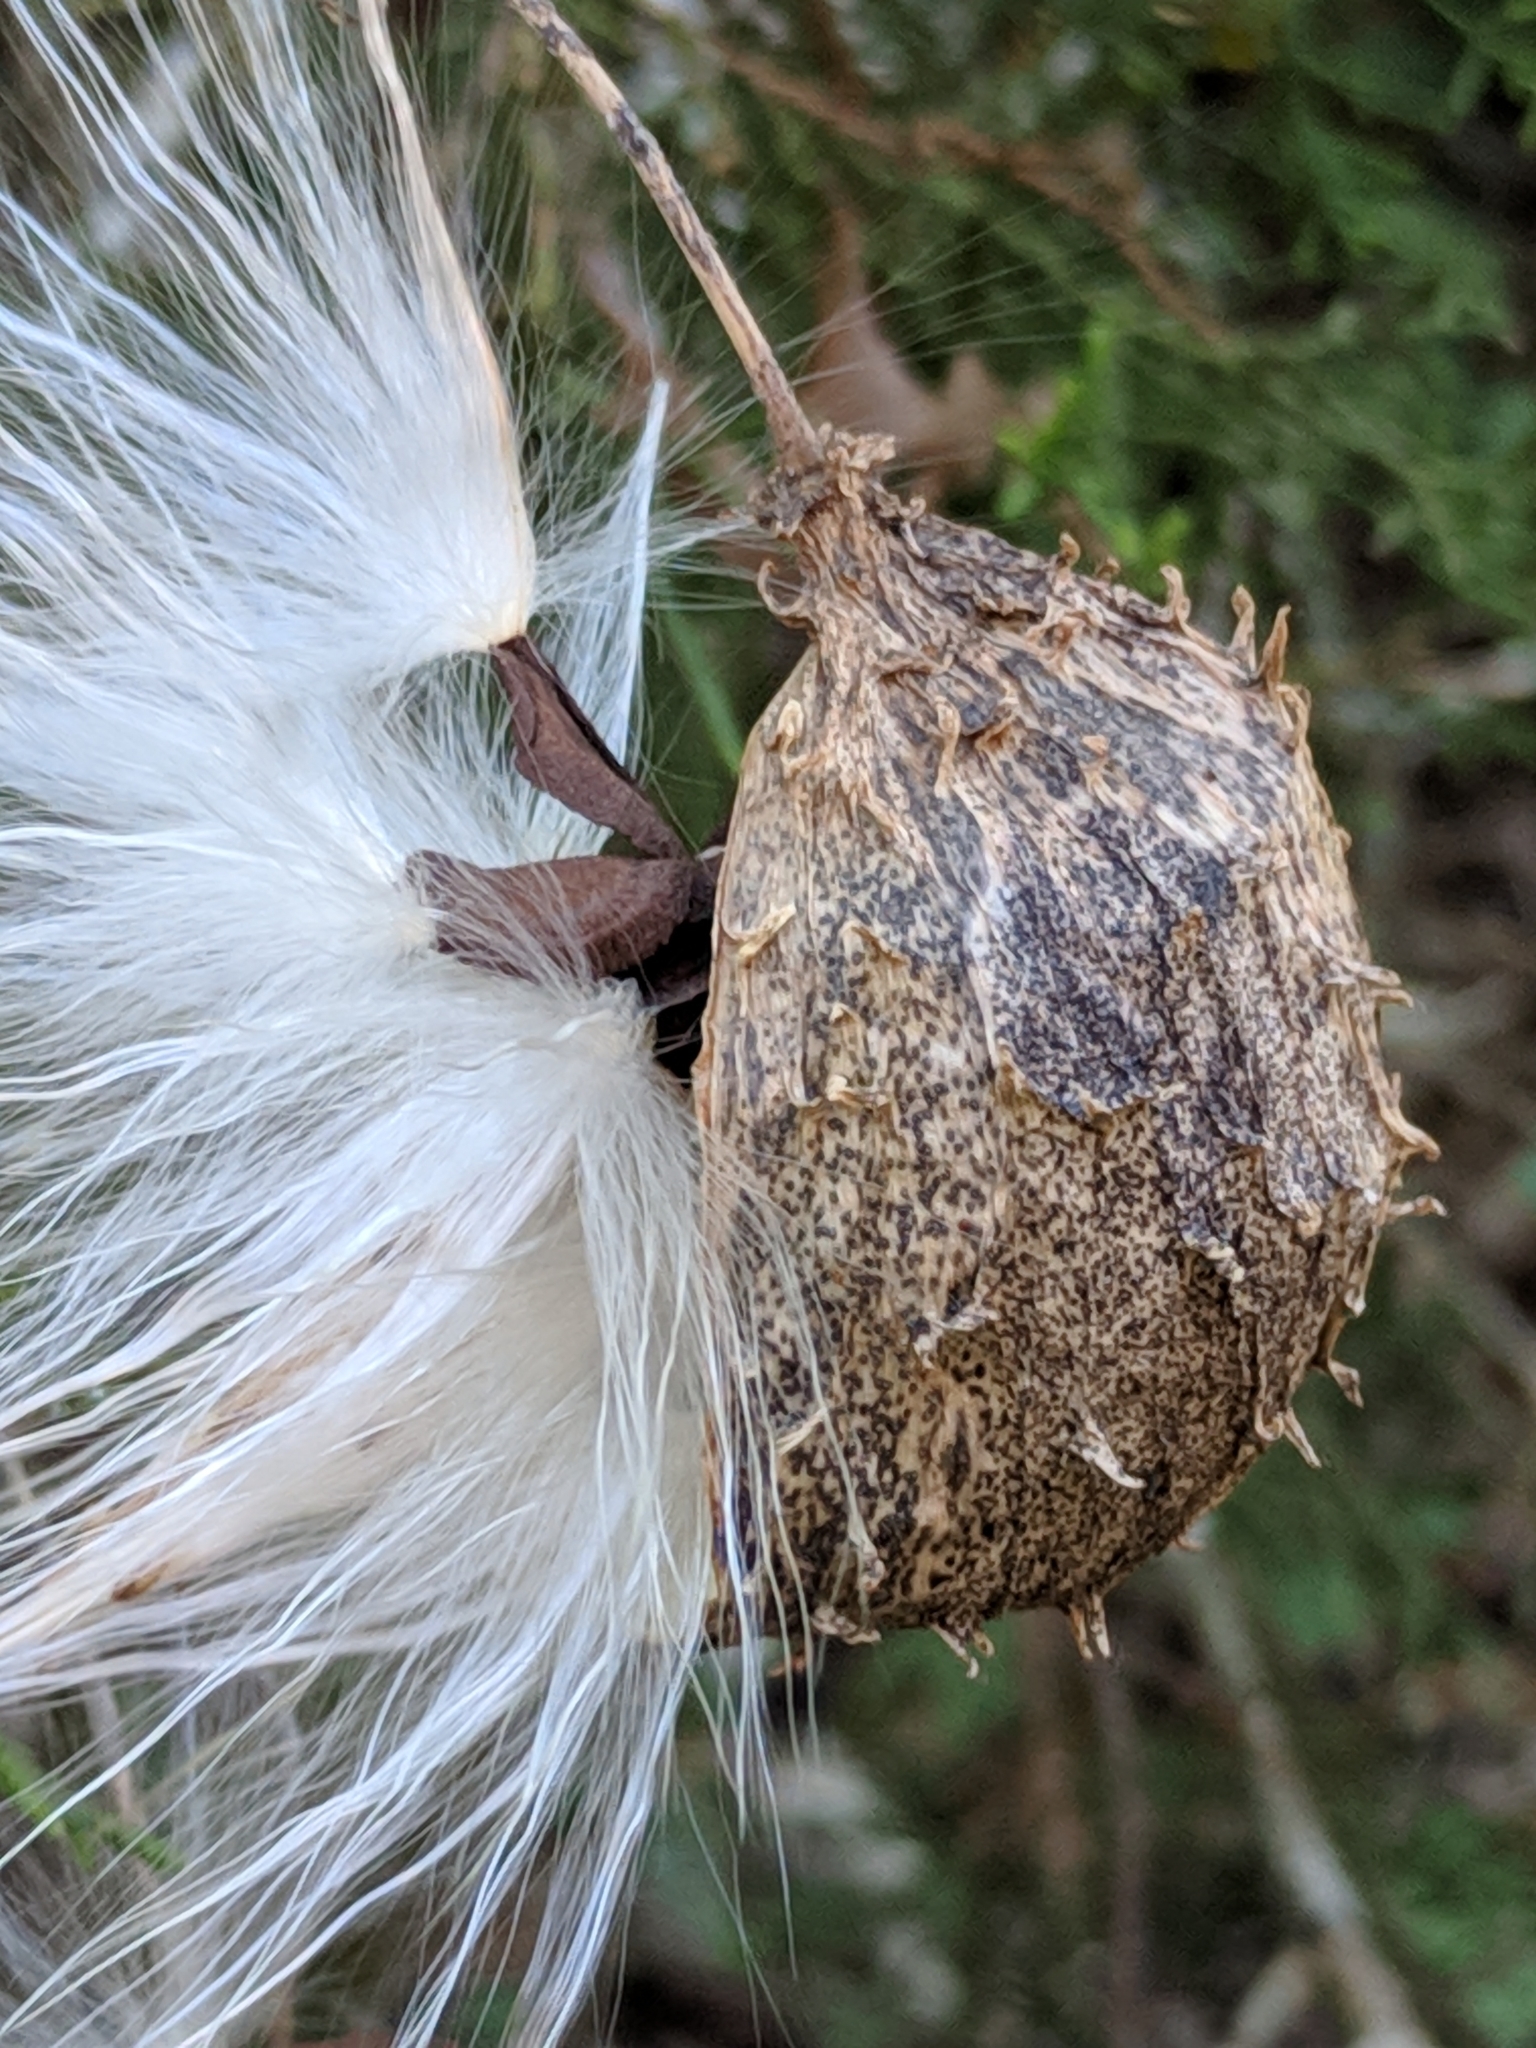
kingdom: Plantae
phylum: Tracheophyta
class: Magnoliopsida
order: Gentianales
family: Apocynaceae
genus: Matelea
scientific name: Matelea edwardsensis
